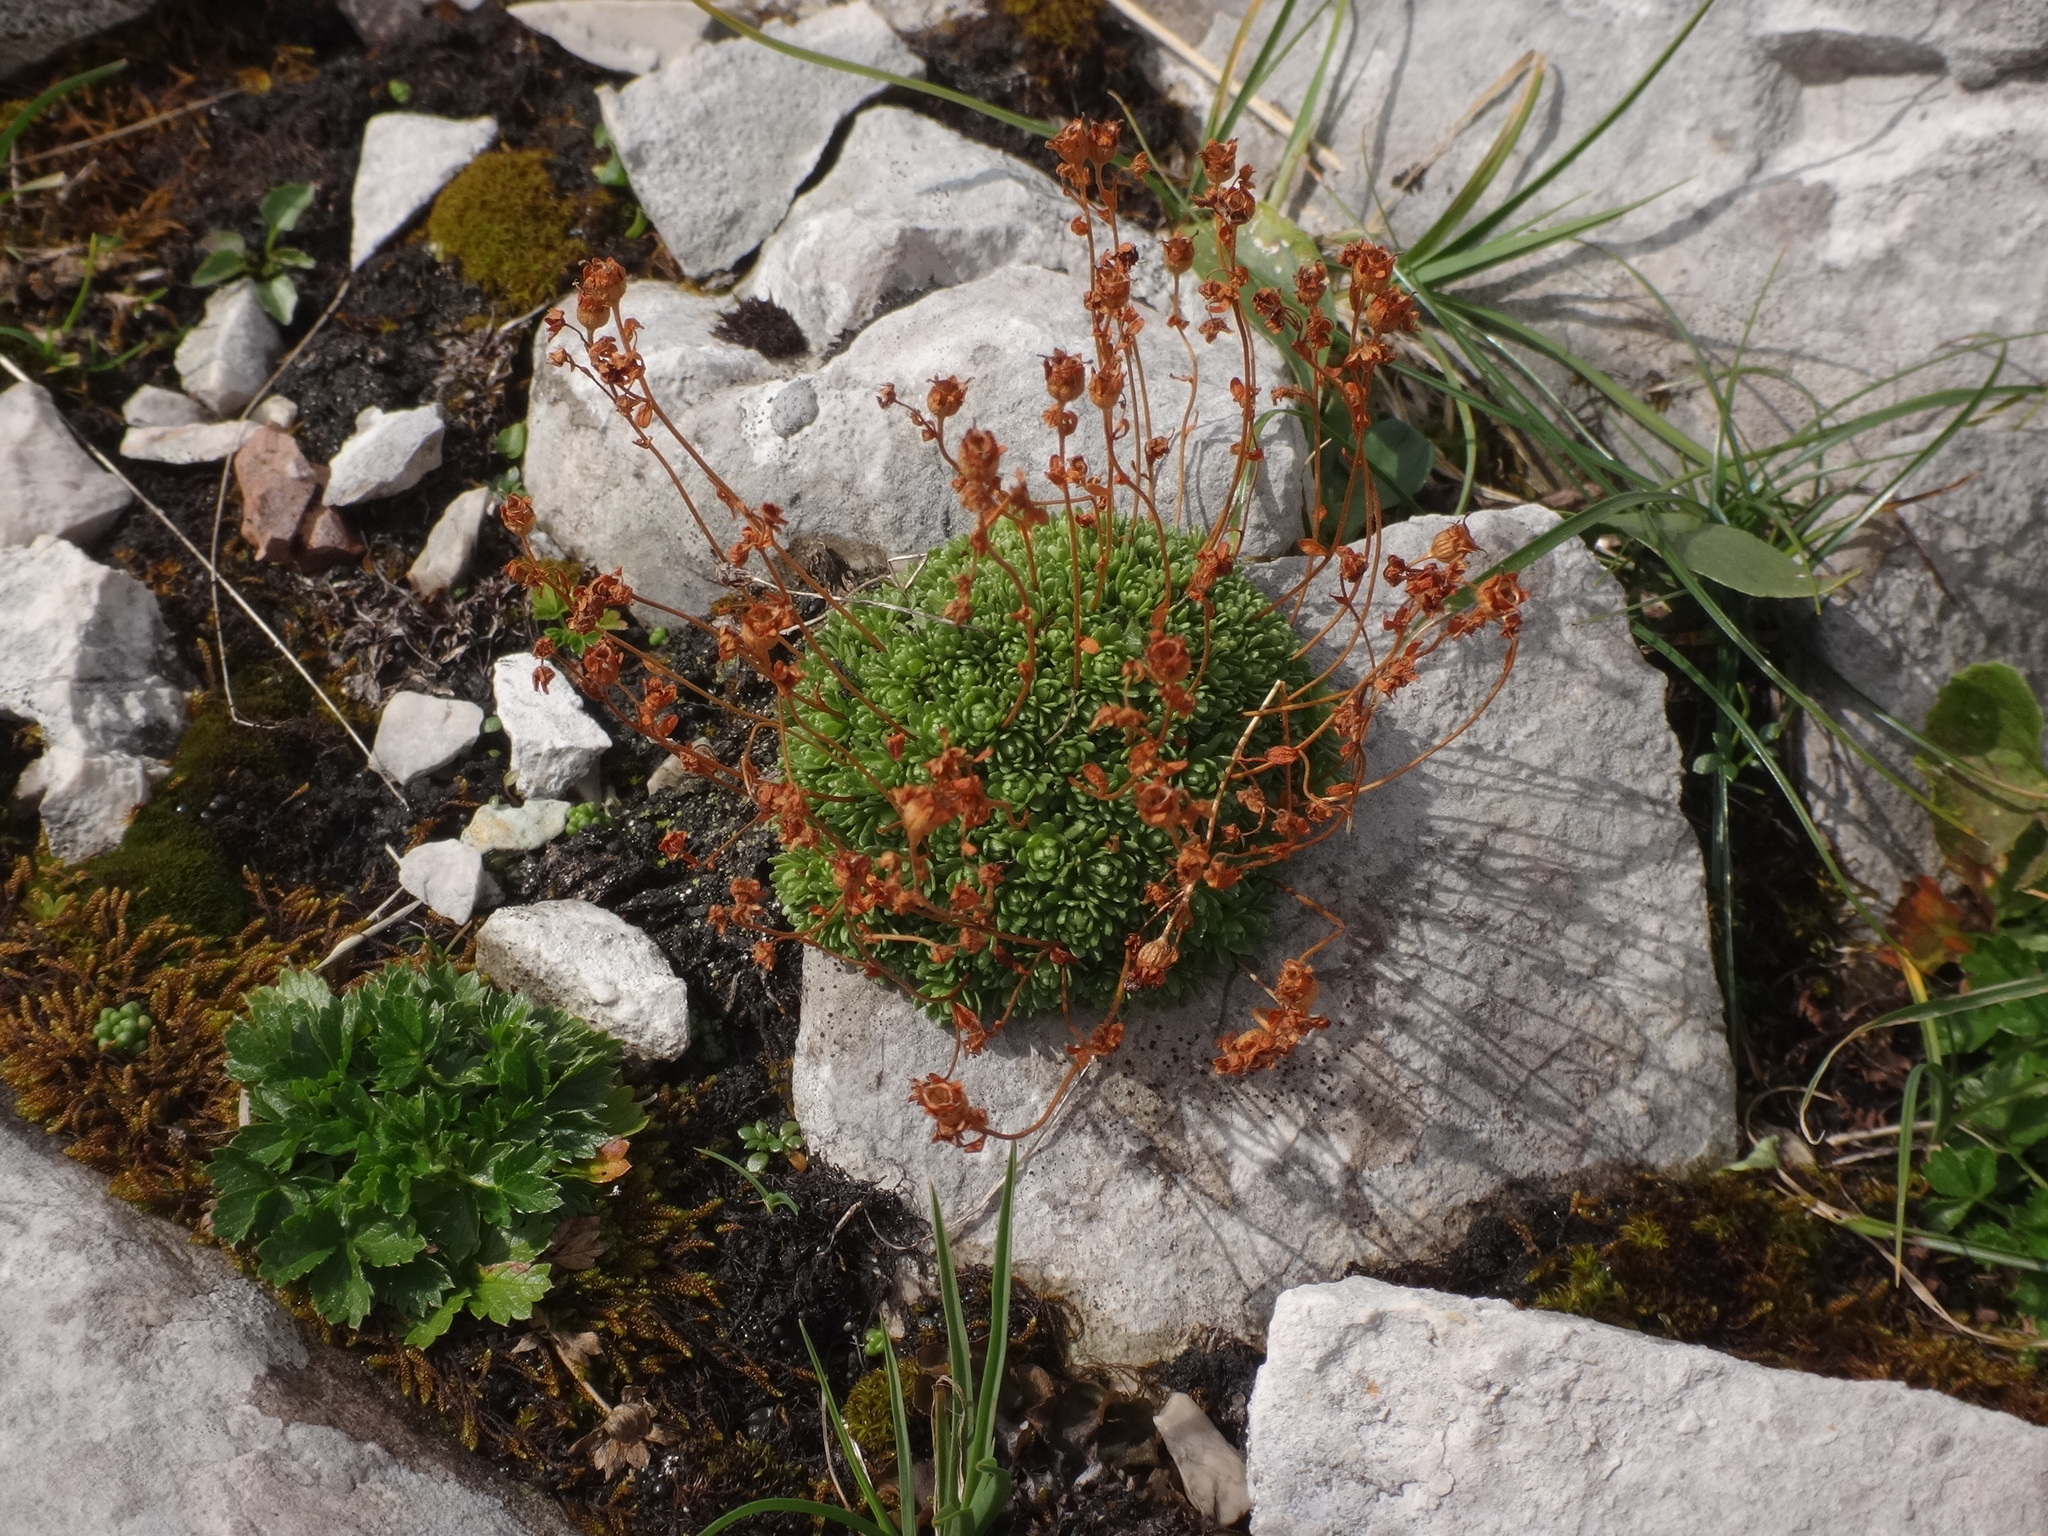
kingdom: Plantae
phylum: Tracheophyta
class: Magnoliopsida
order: Saxifragales
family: Saxifragaceae
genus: Saxifraga
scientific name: Saxifraga moschata
